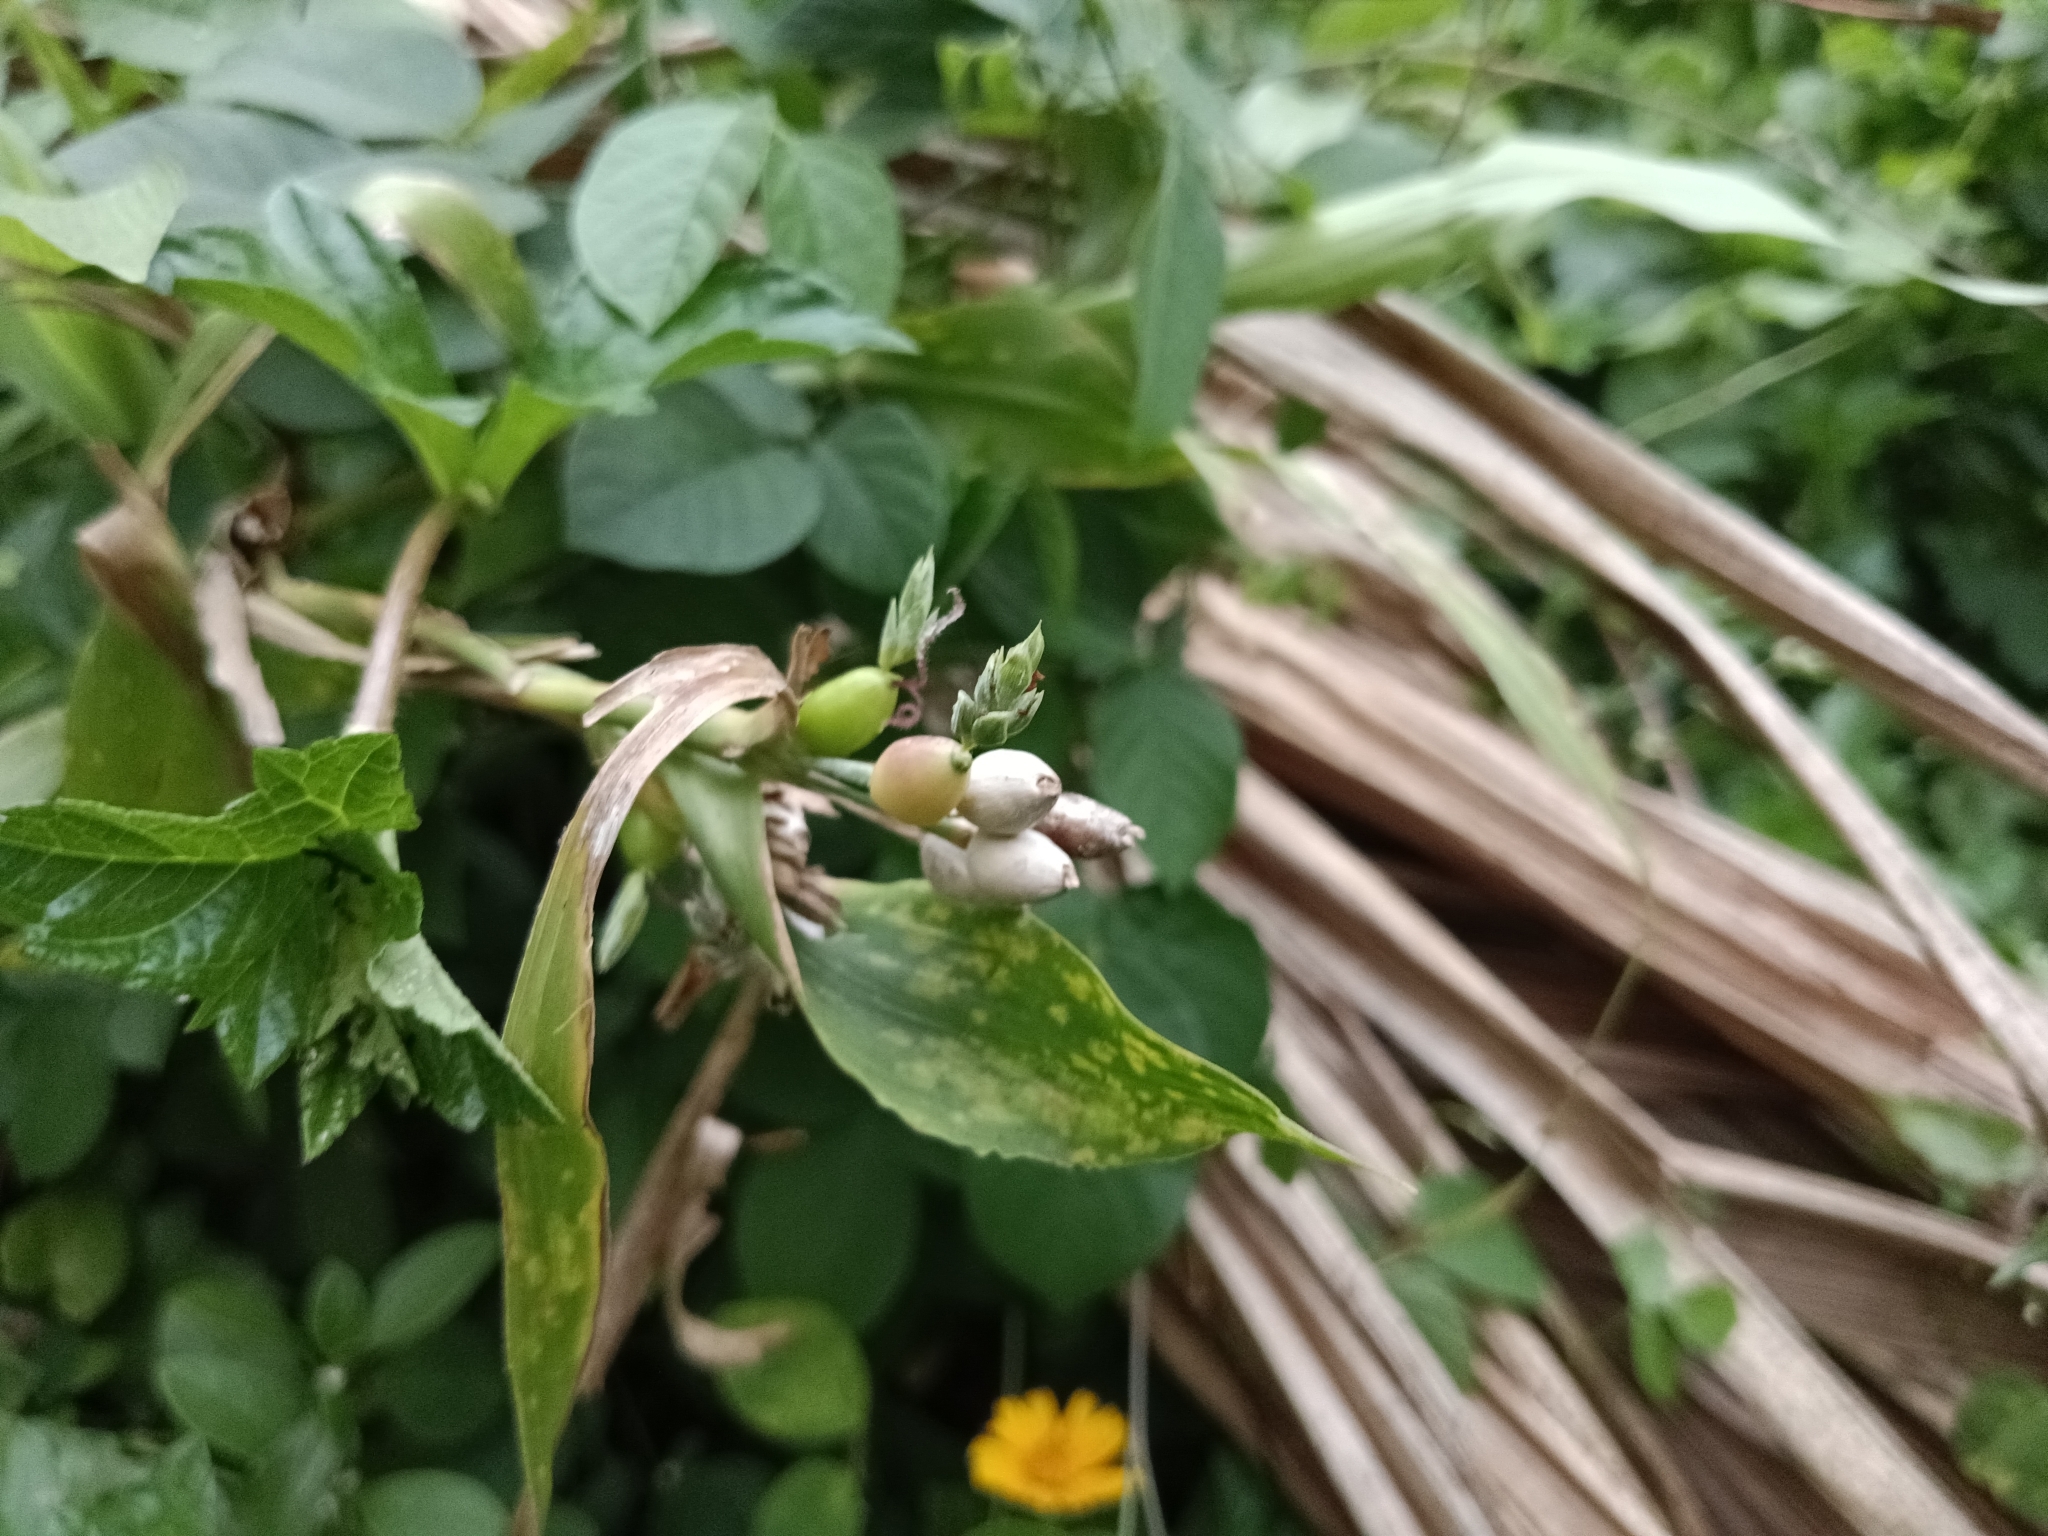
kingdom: Plantae
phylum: Tracheophyta
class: Liliopsida
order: Poales
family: Poaceae
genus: Coix
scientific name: Coix lacryma-jobi
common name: Job's tears
